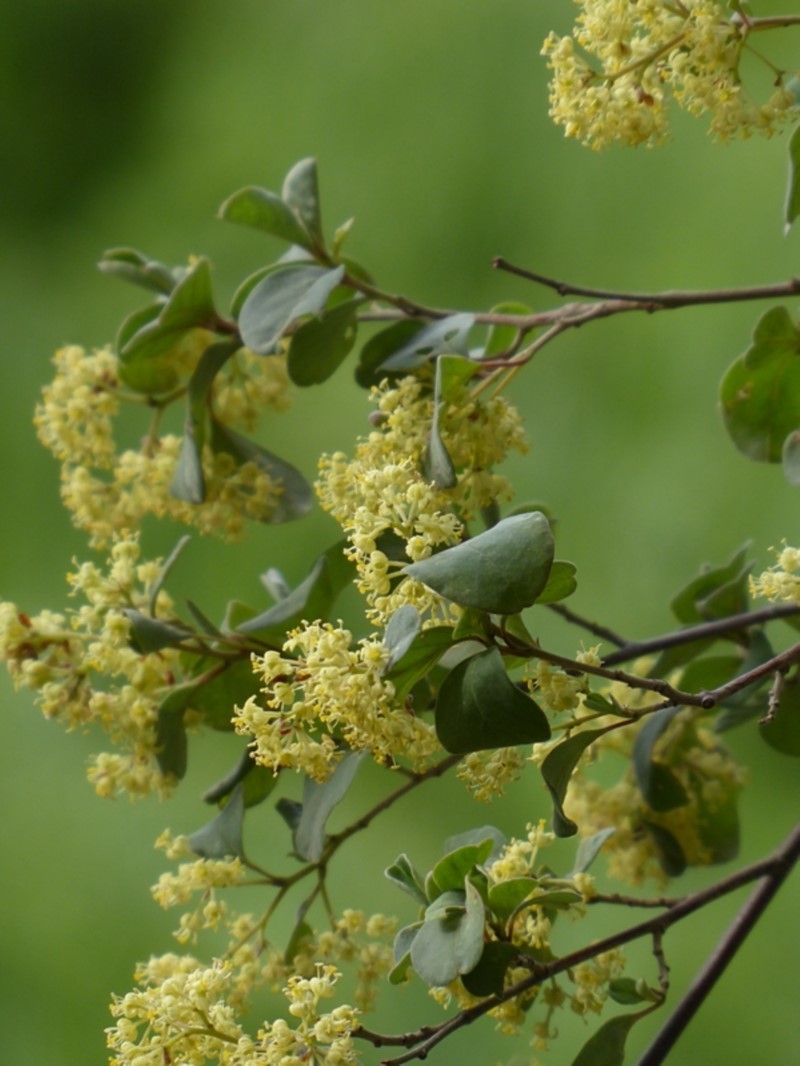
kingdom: Plantae
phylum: Tracheophyta
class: Magnoliopsida
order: Rosales
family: Rhamnaceae
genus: Pomaderris
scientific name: Pomaderris brogoensis
